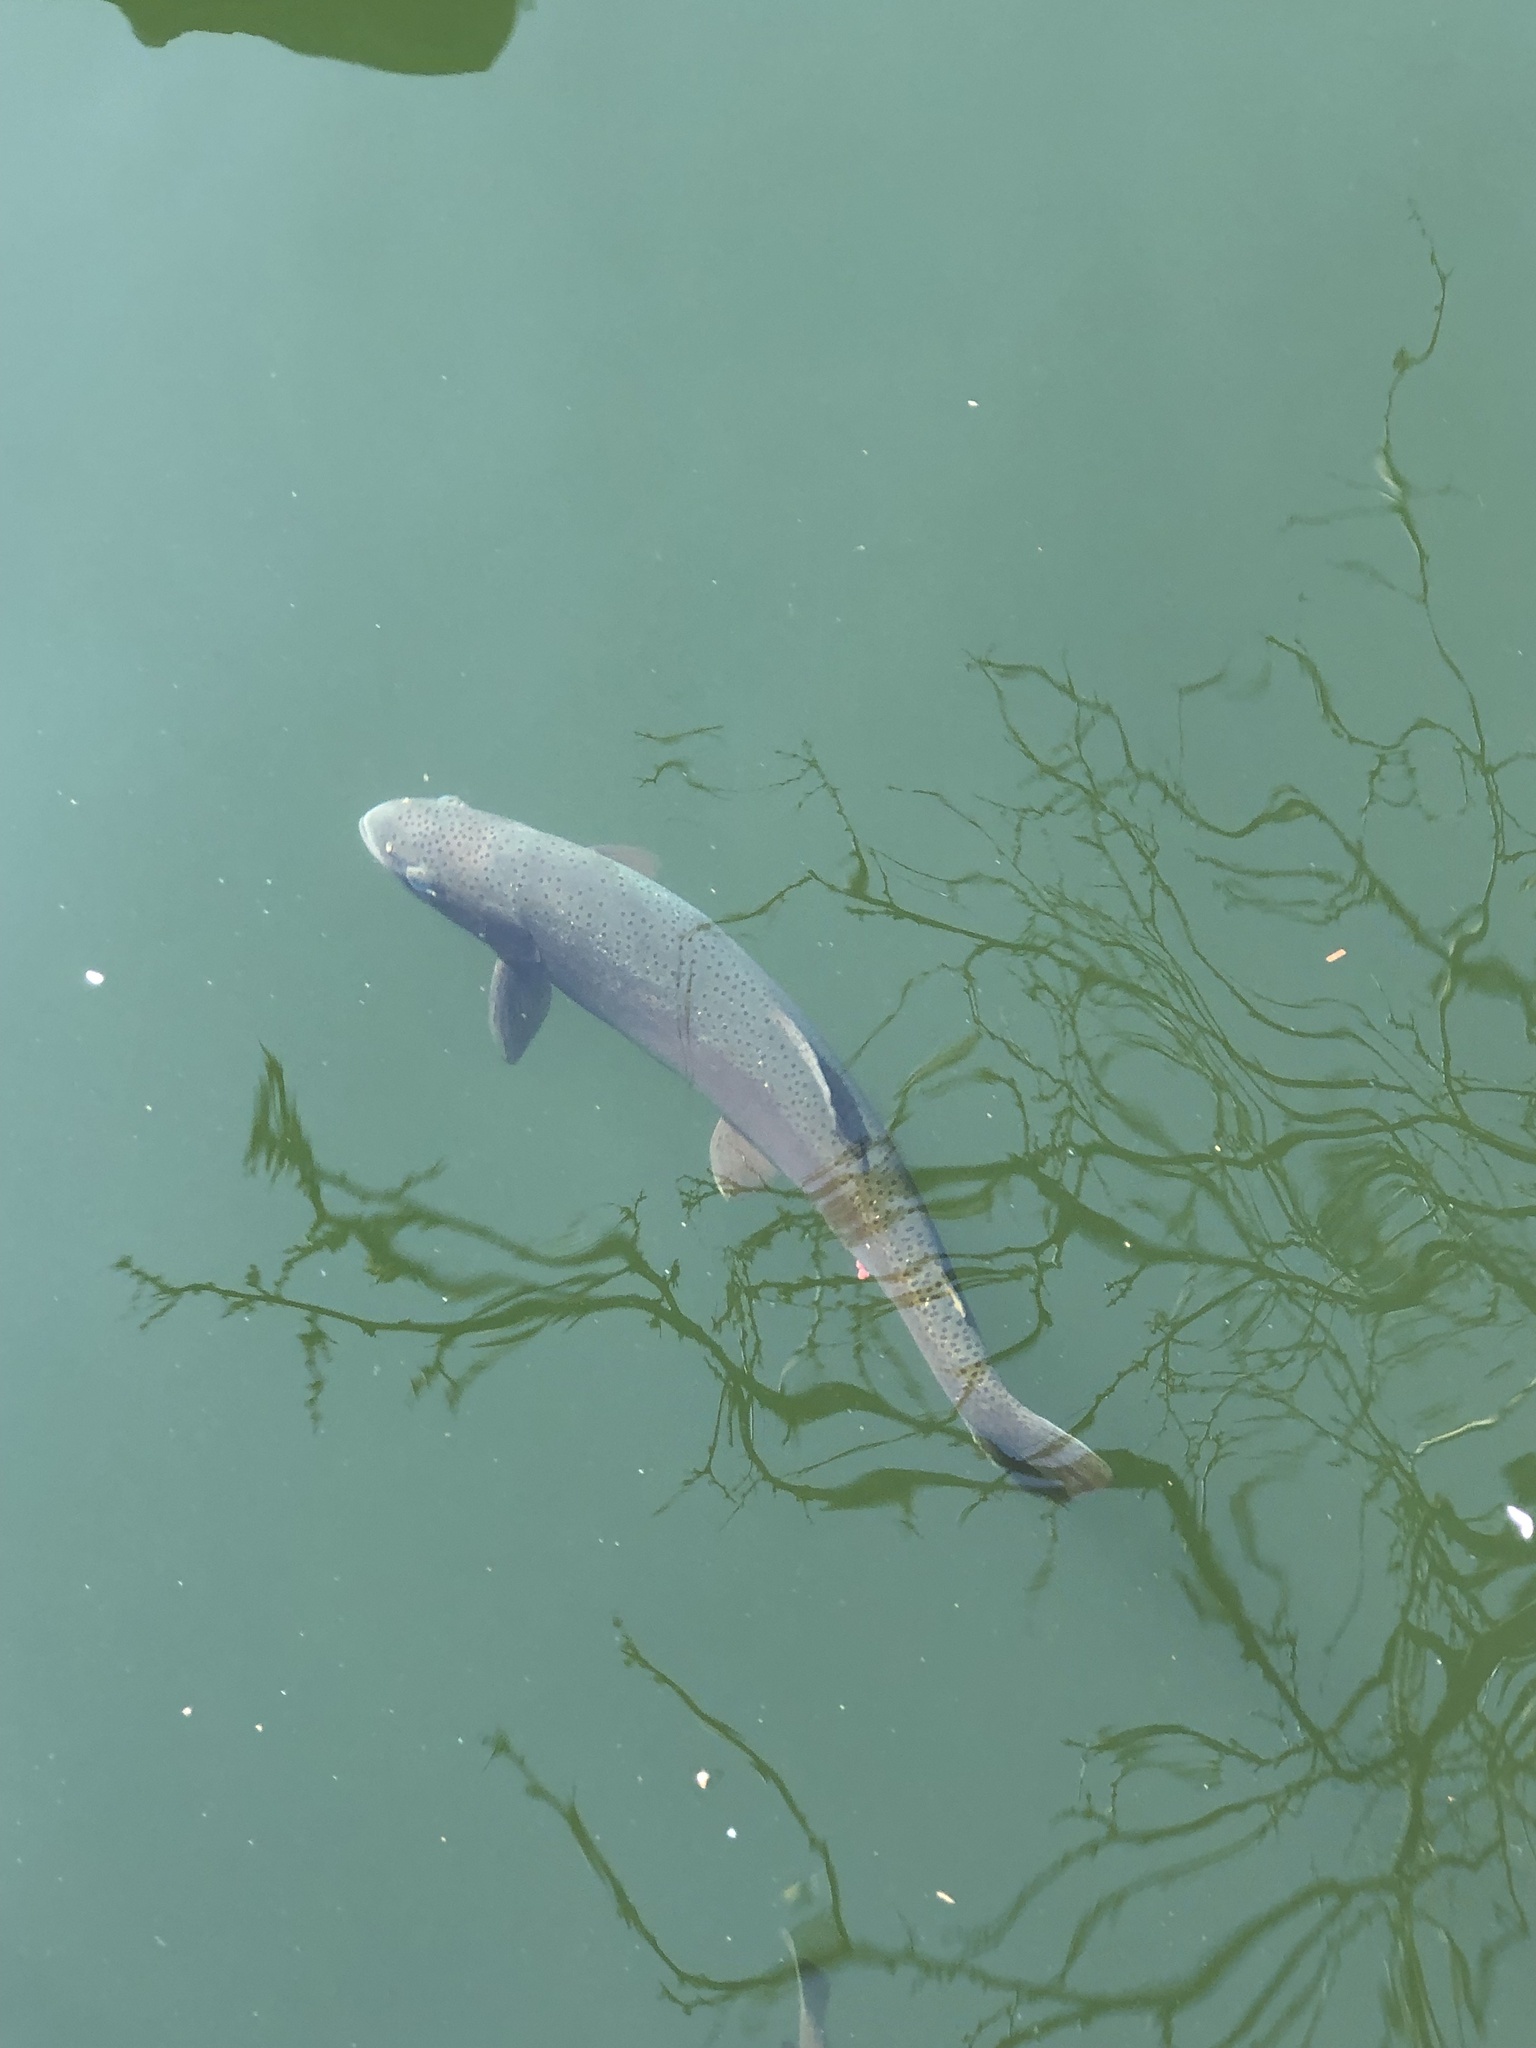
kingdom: Animalia
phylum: Chordata
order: Salmoniformes
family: Salmonidae
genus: Oncorhynchus
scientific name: Oncorhynchus mykiss
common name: Rainbow trout
